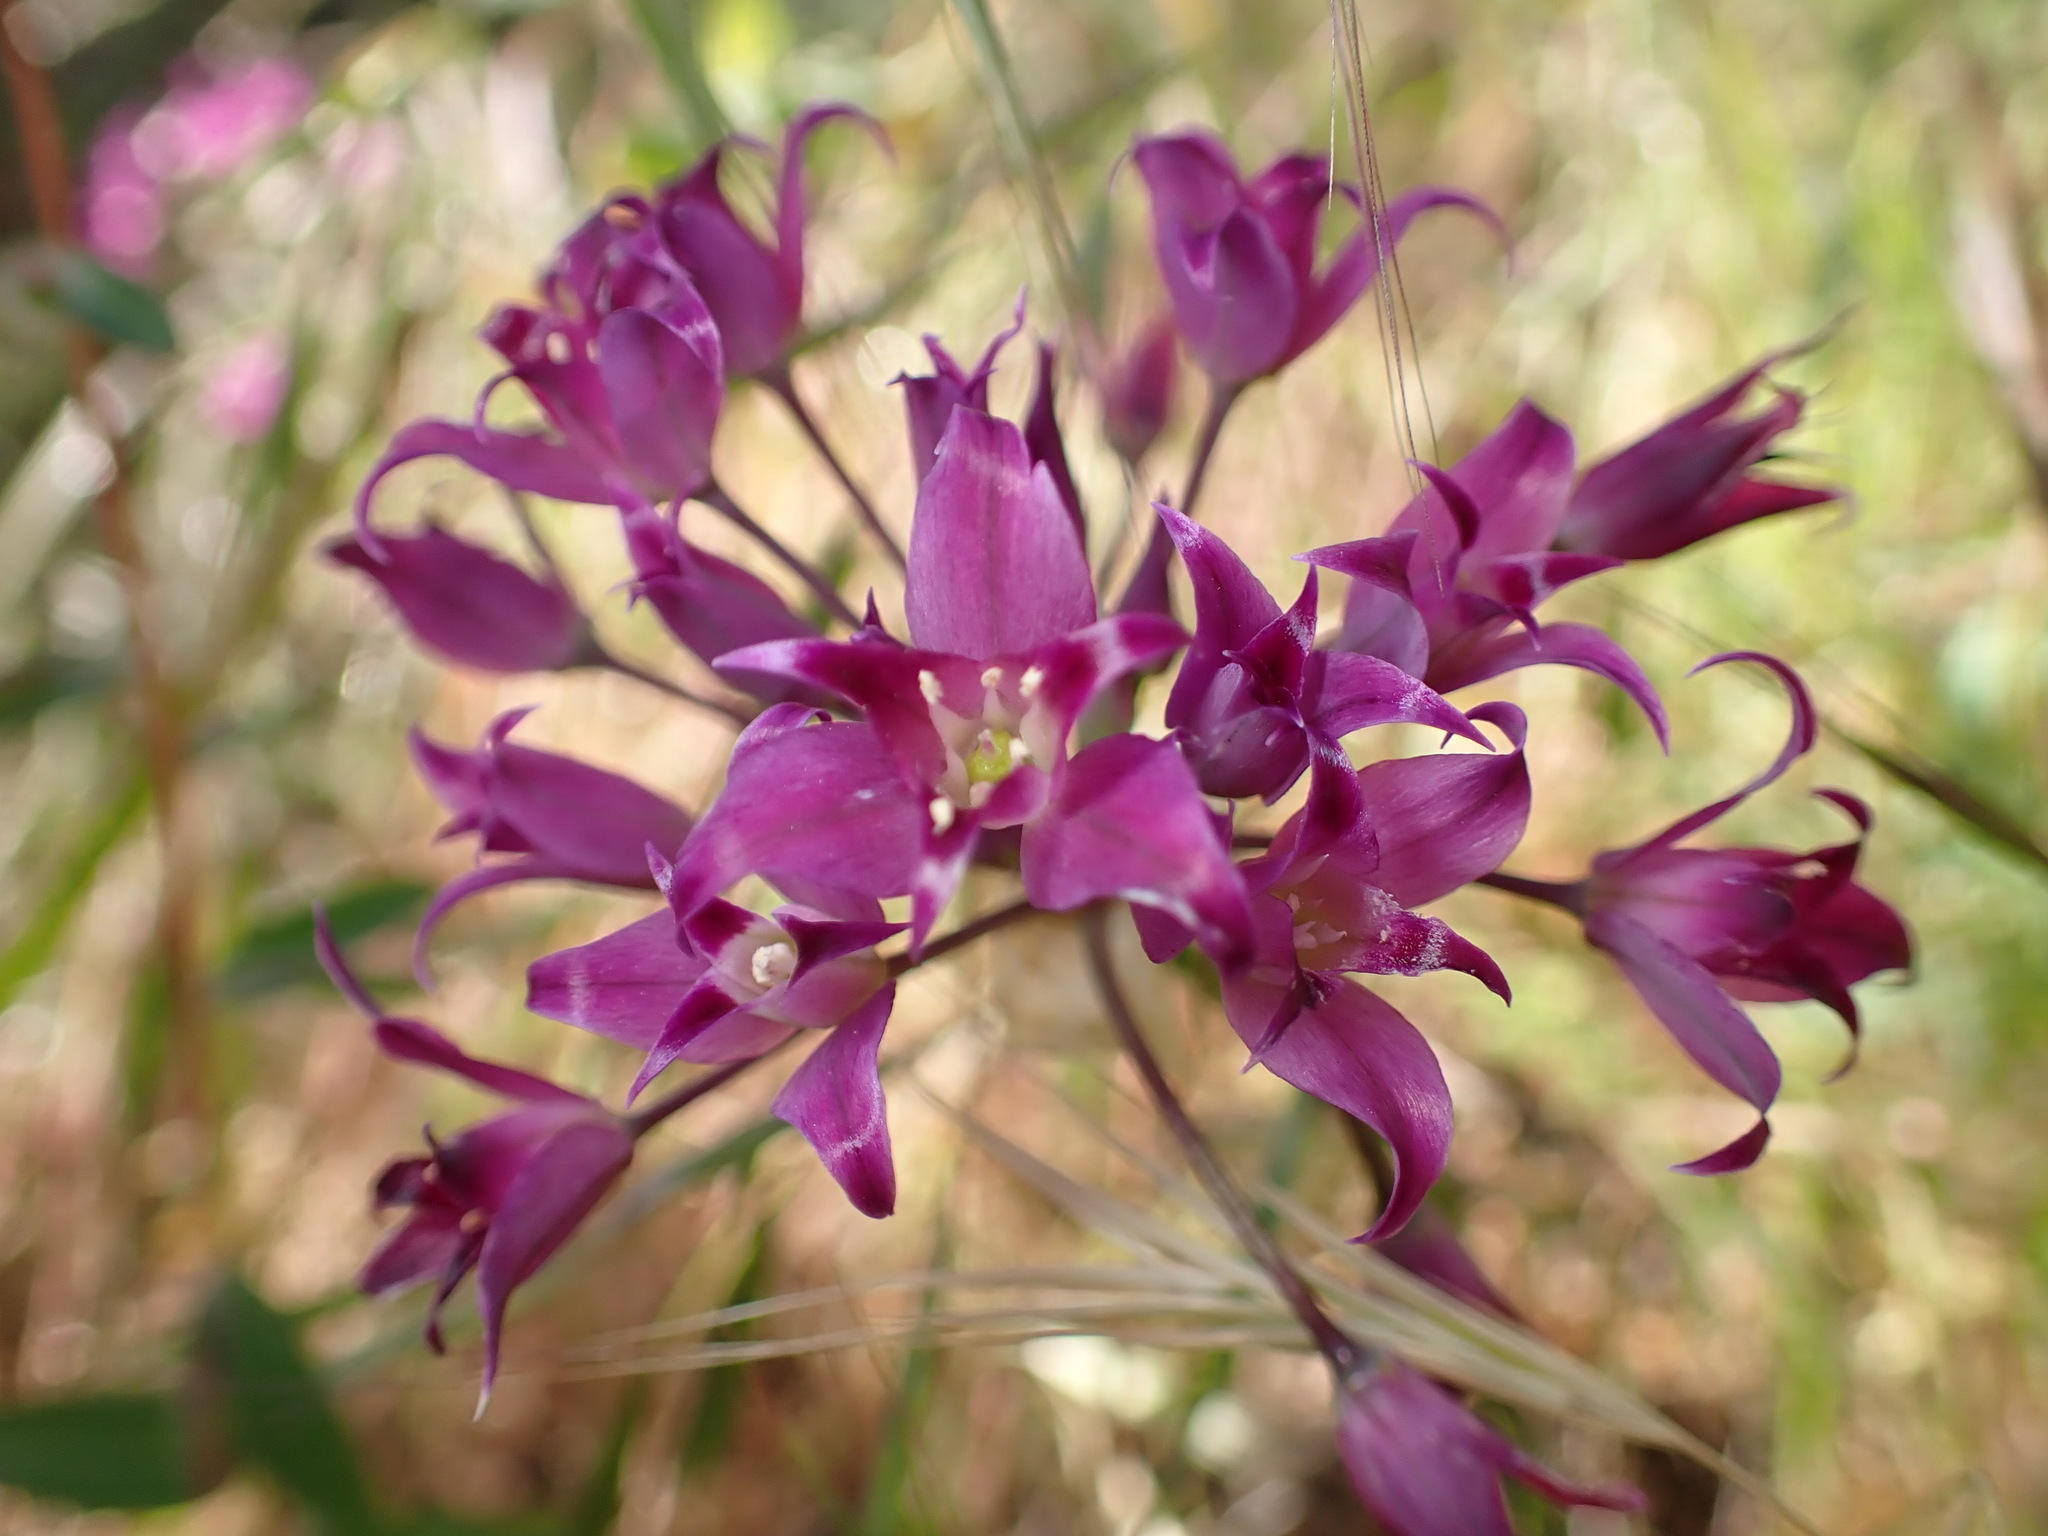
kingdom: Plantae
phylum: Tracheophyta
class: Liliopsida
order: Asparagales
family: Amaryllidaceae
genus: Allium
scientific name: Allium peninsulare
